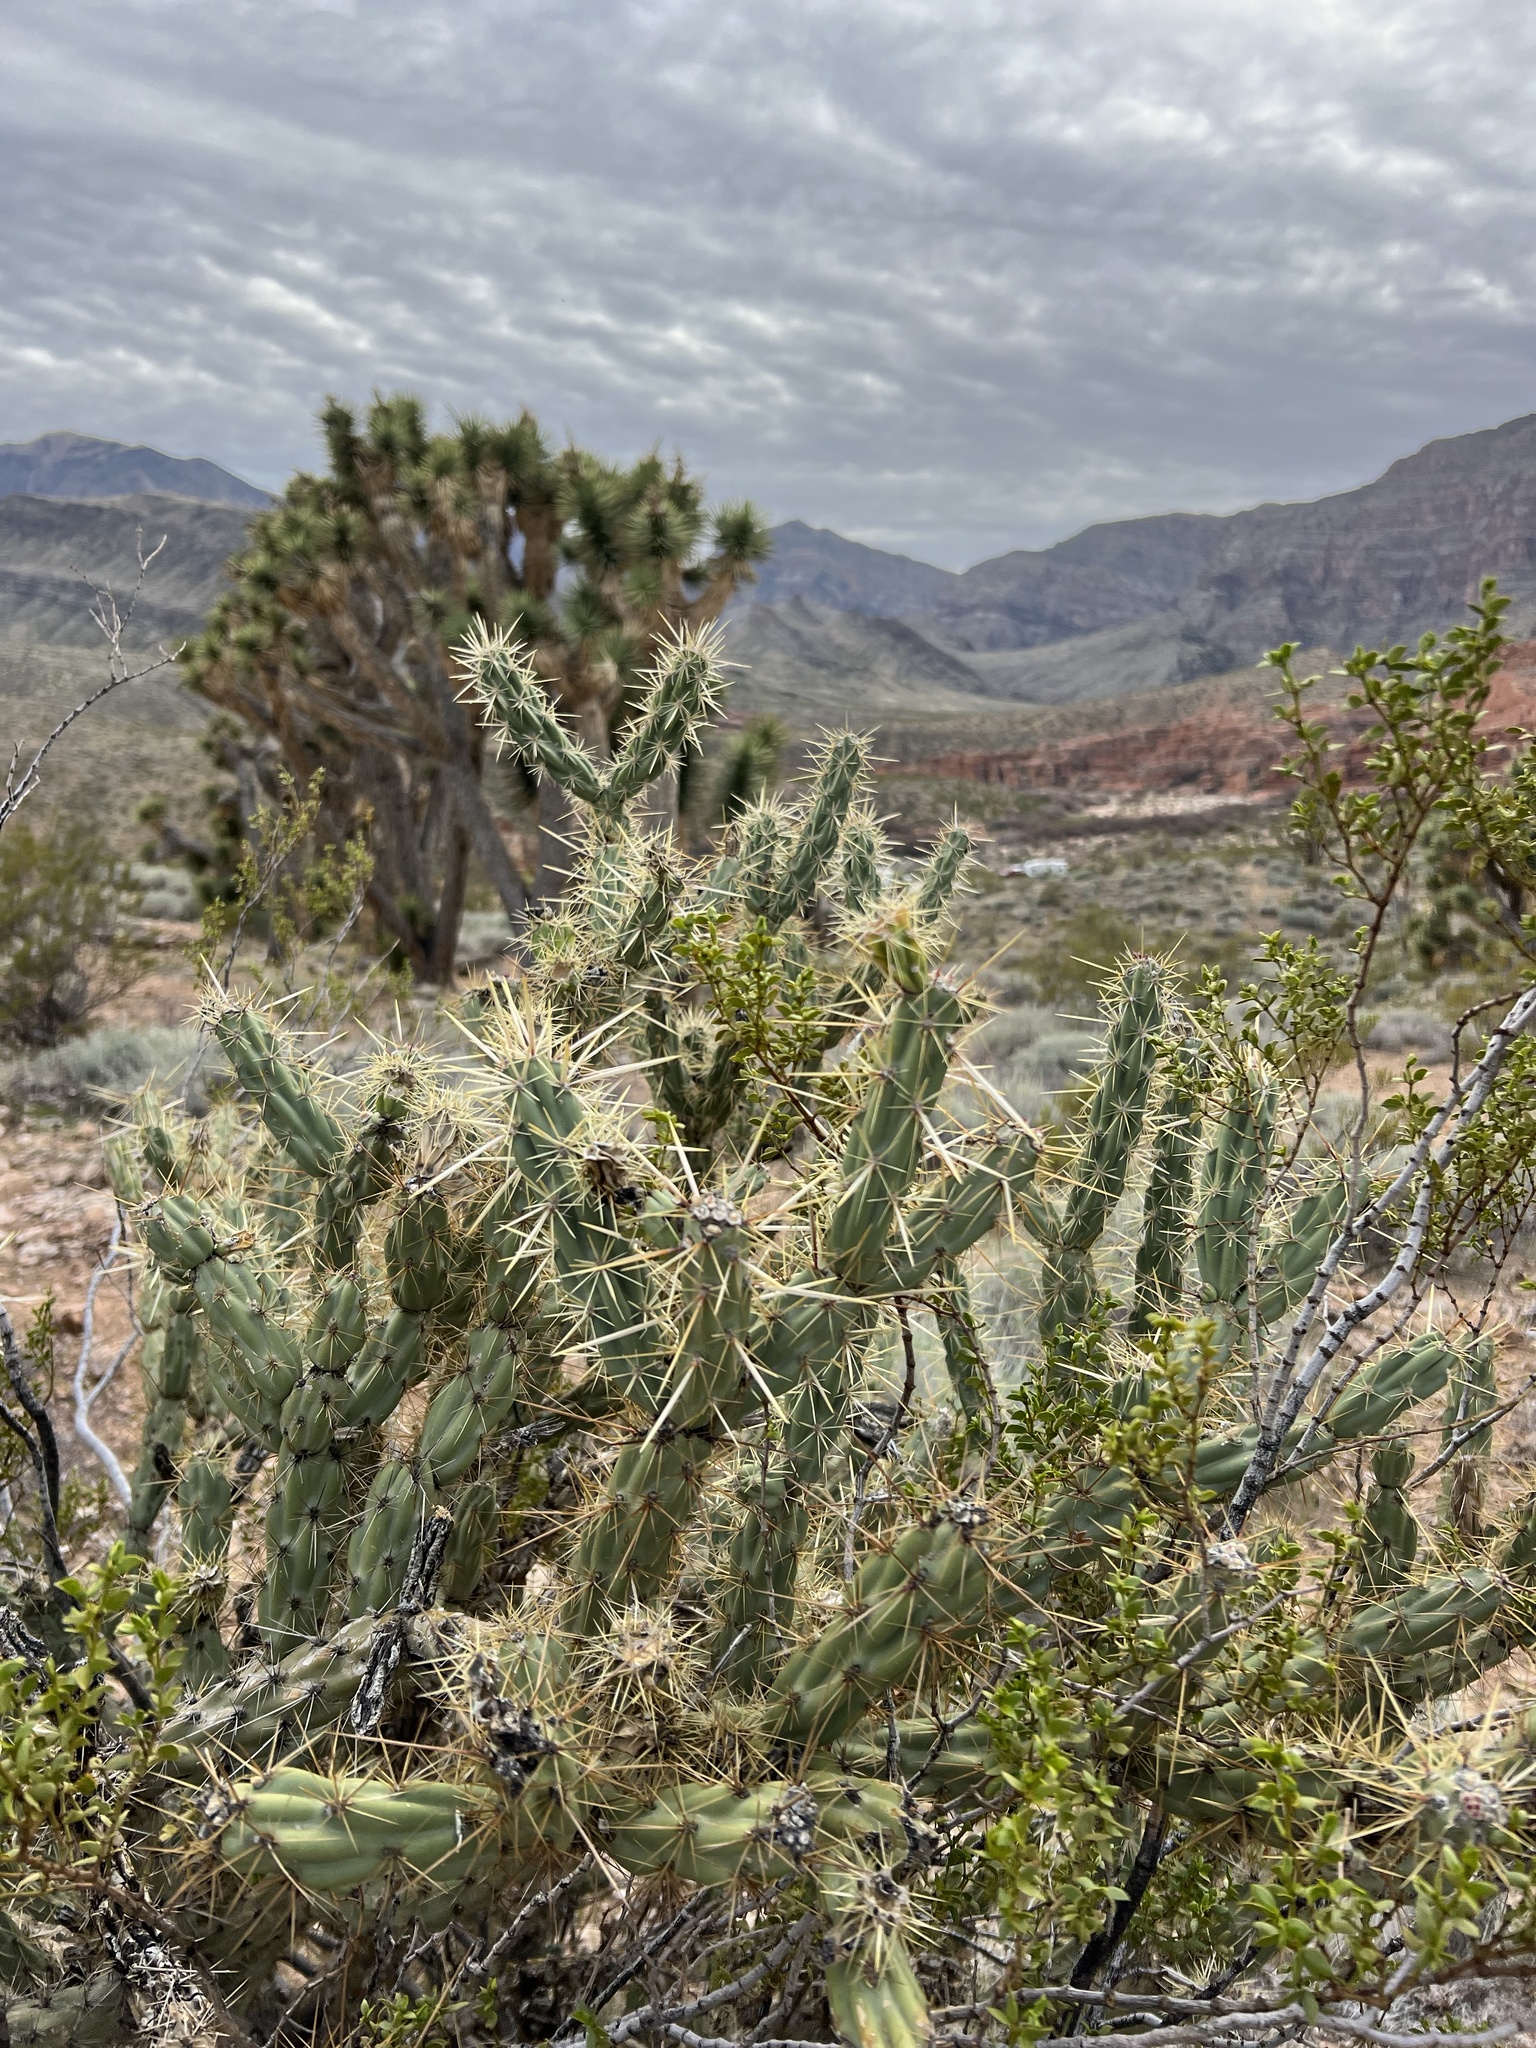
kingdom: Plantae
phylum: Tracheophyta
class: Magnoliopsida
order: Caryophyllales
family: Cactaceae
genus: Cylindropuntia
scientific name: Cylindropuntia acanthocarpa
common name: Buckhorn cholla
